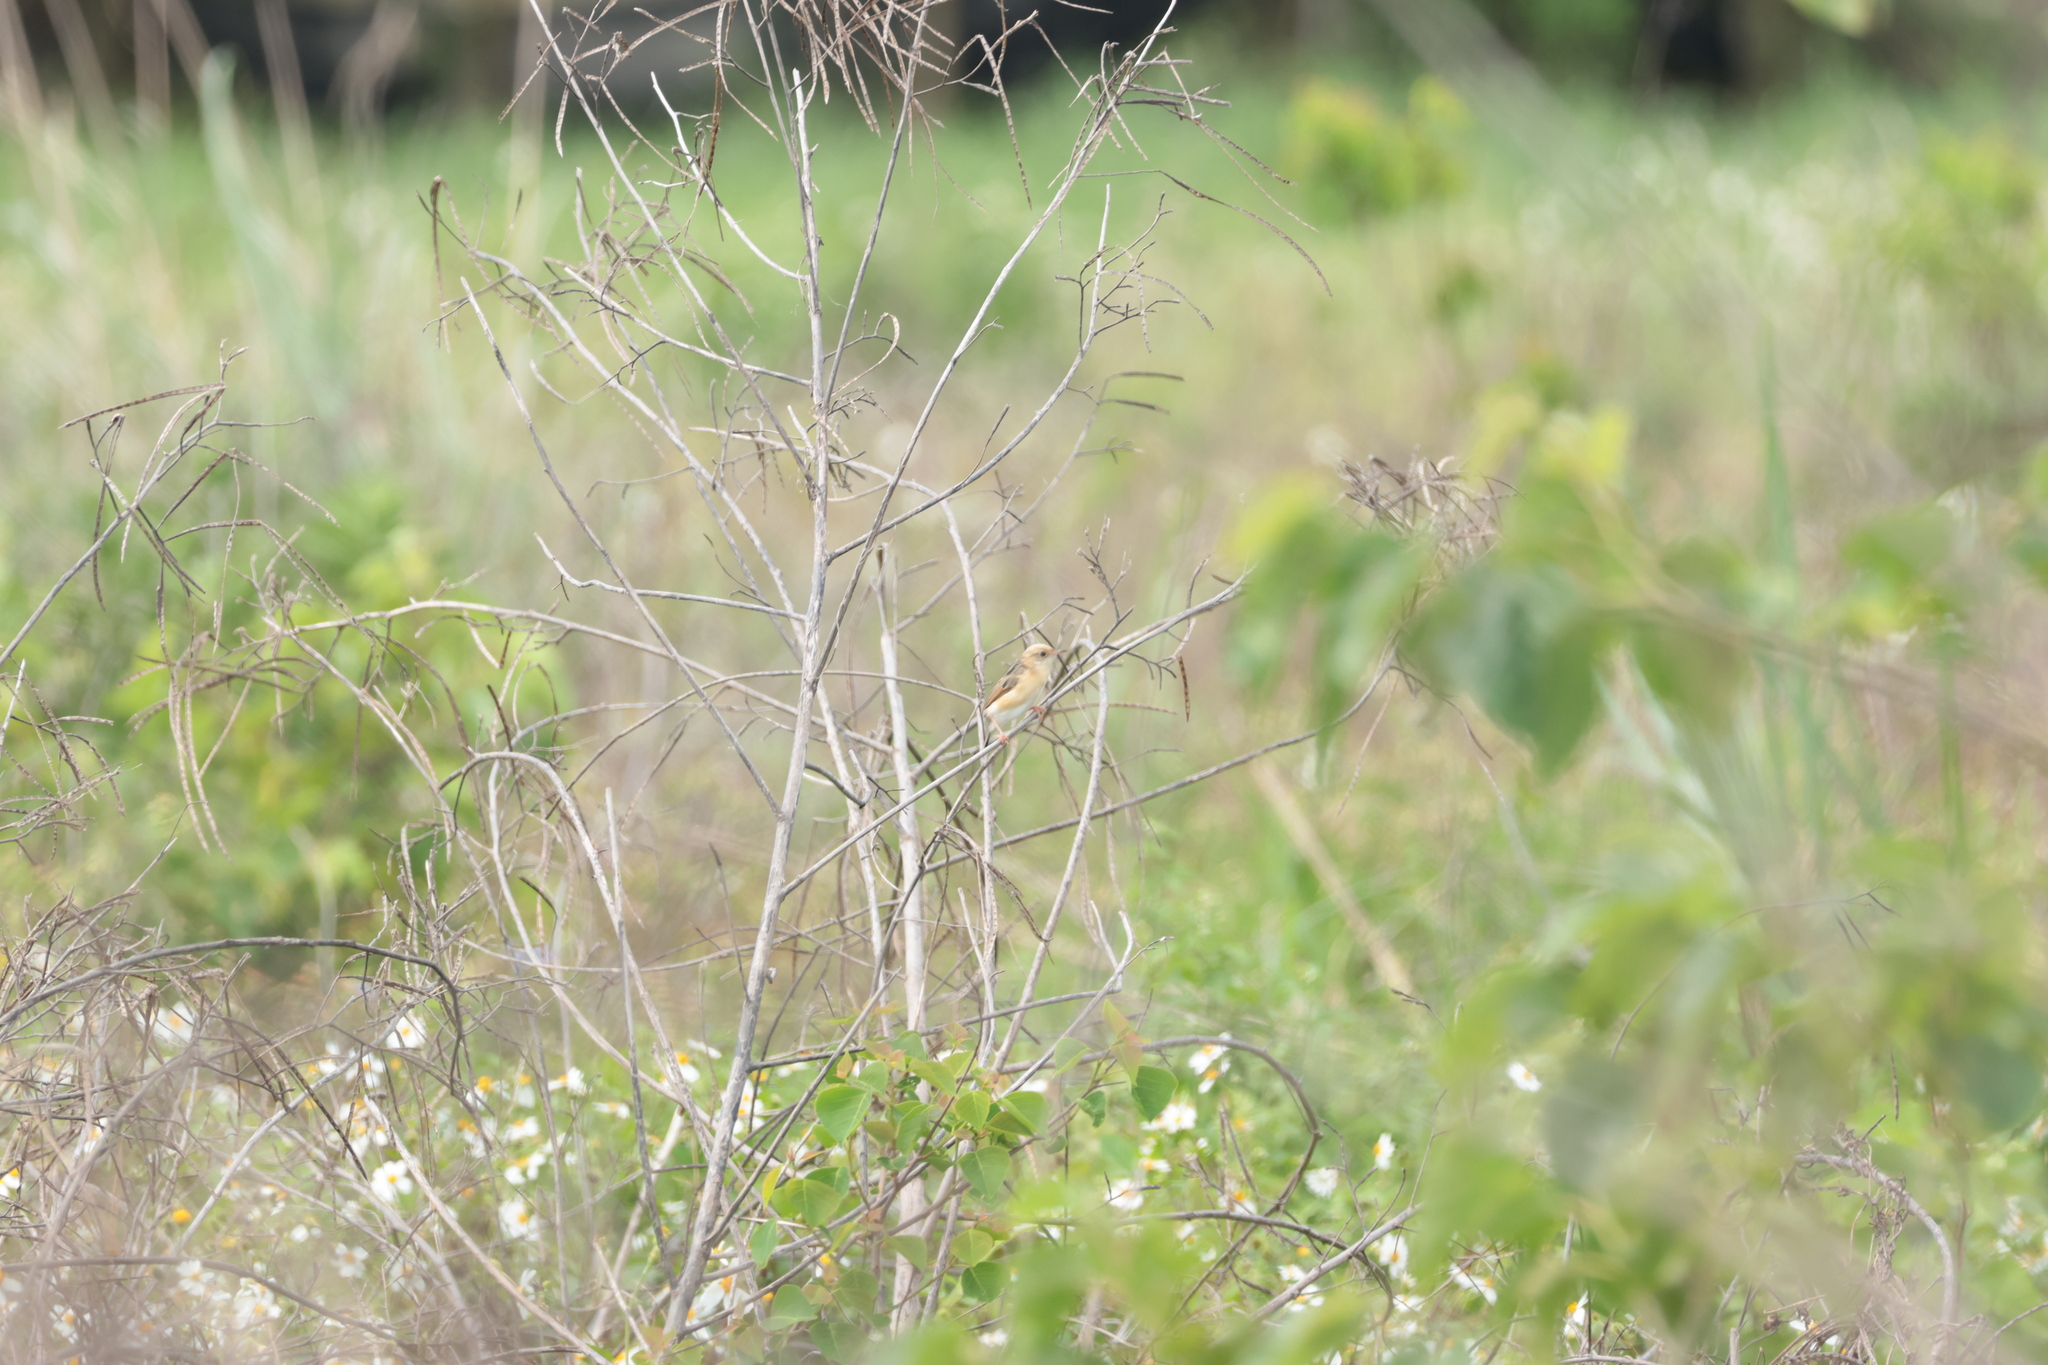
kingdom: Animalia
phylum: Chordata
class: Aves
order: Passeriformes
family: Cisticolidae
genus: Cisticola
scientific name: Cisticola exilis
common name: Golden-headed cisticola
